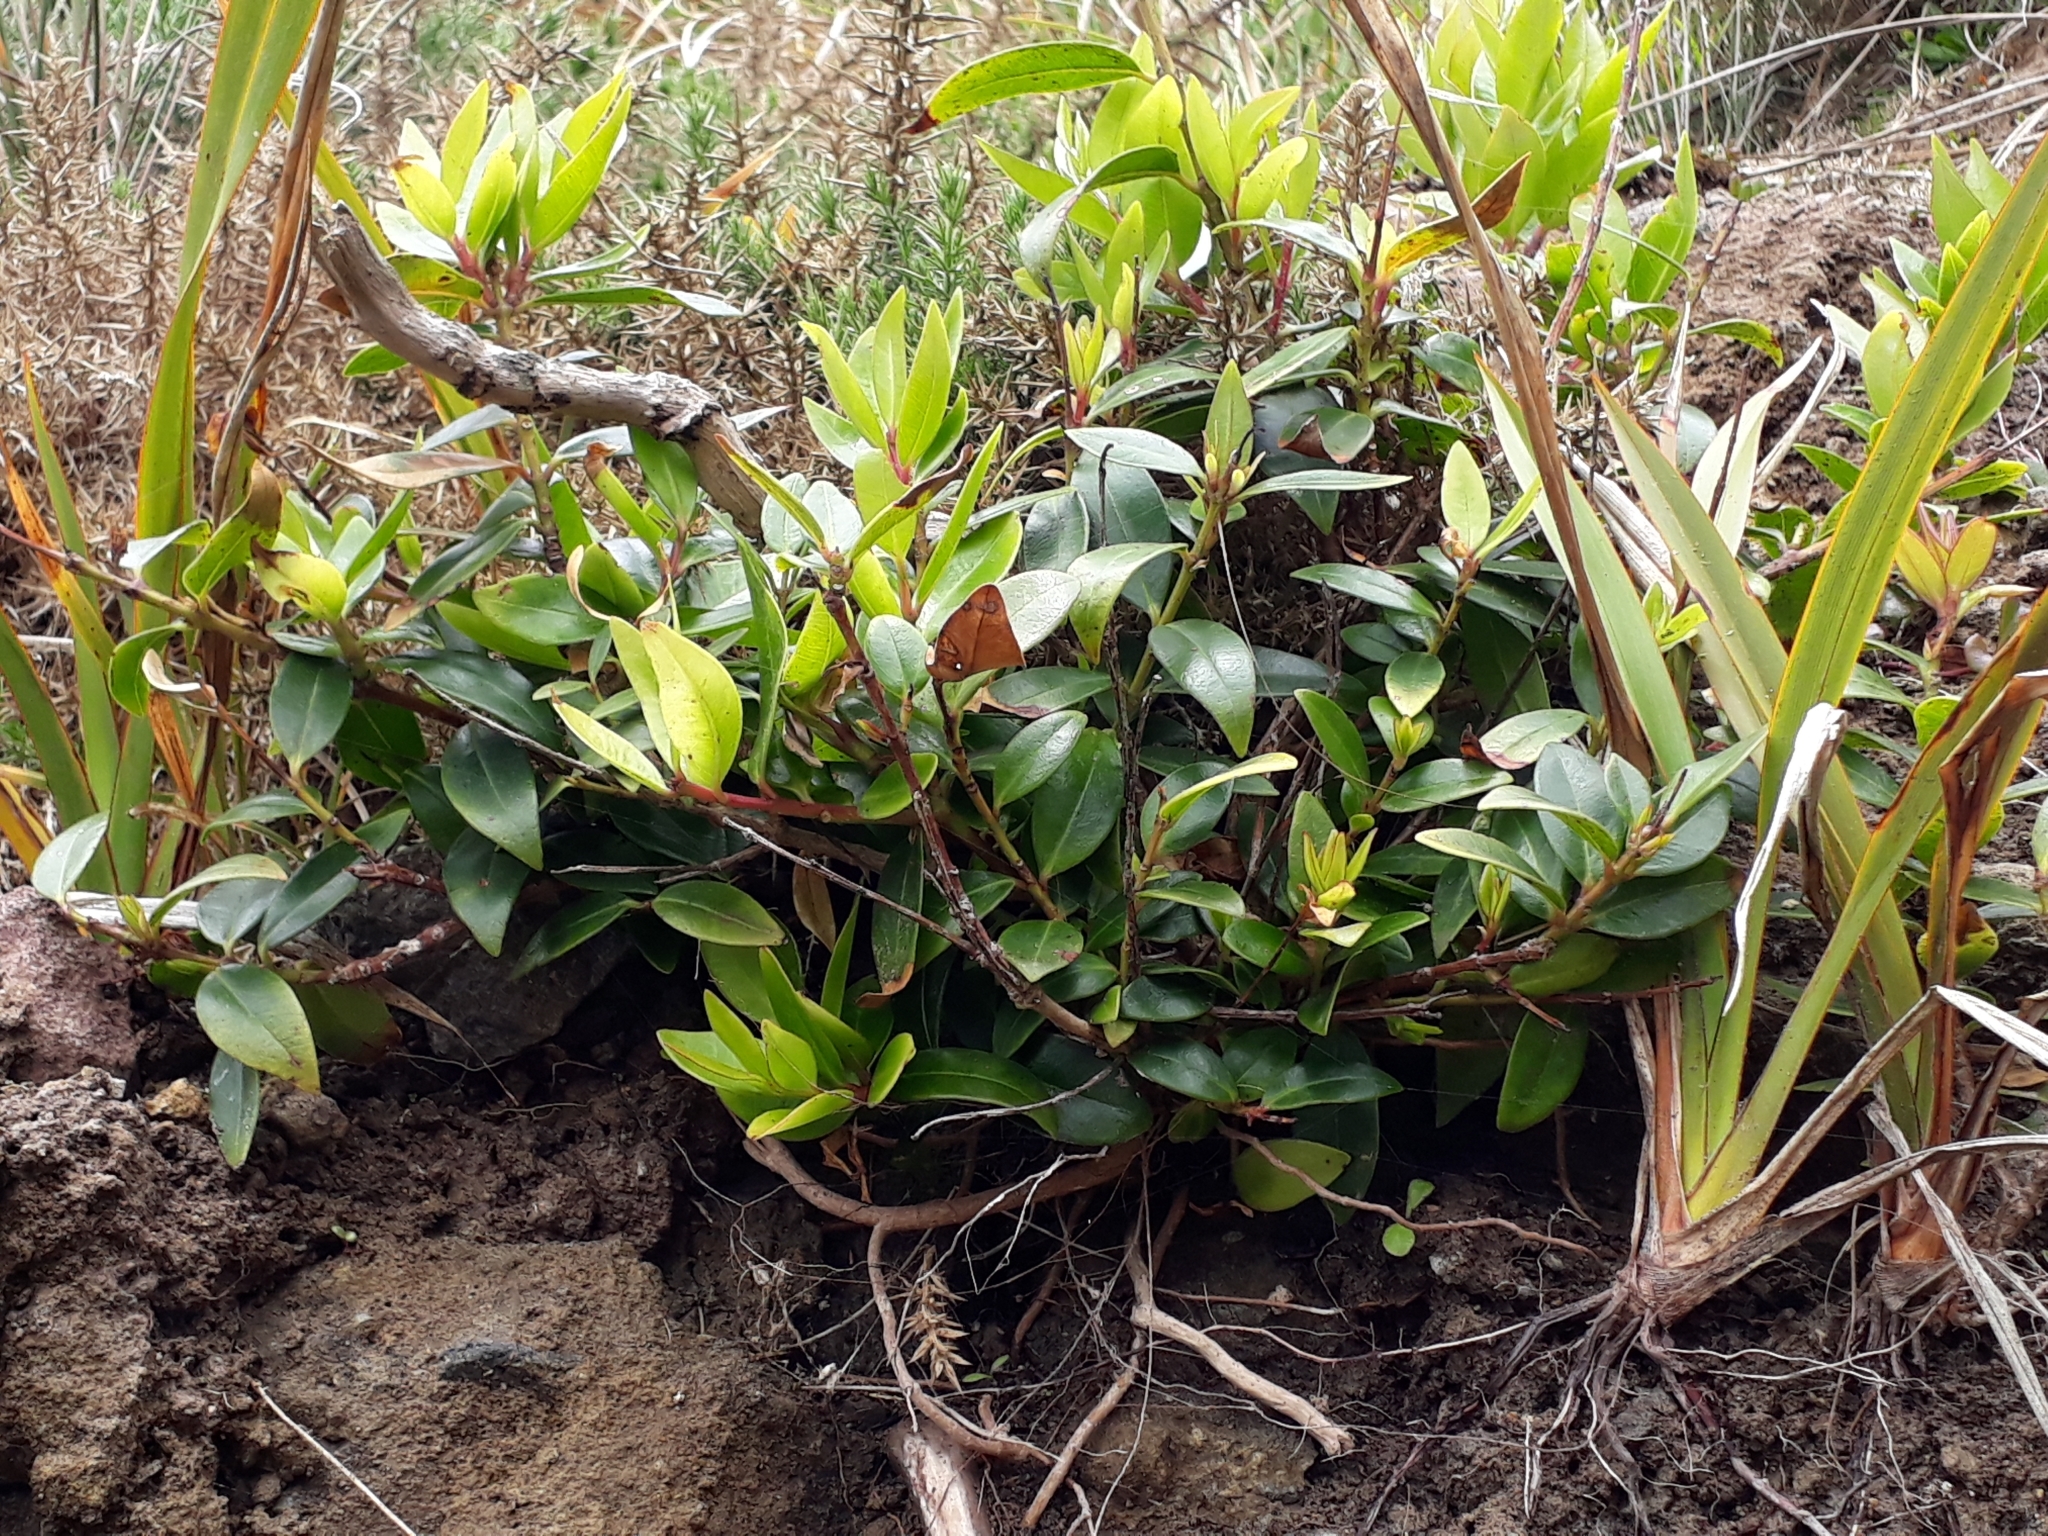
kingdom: Plantae
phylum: Tracheophyta
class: Magnoliopsida
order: Myrtales
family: Myrtaceae
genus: Metrosideros
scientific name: Metrosideros excelsa
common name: New zealand christmastree
